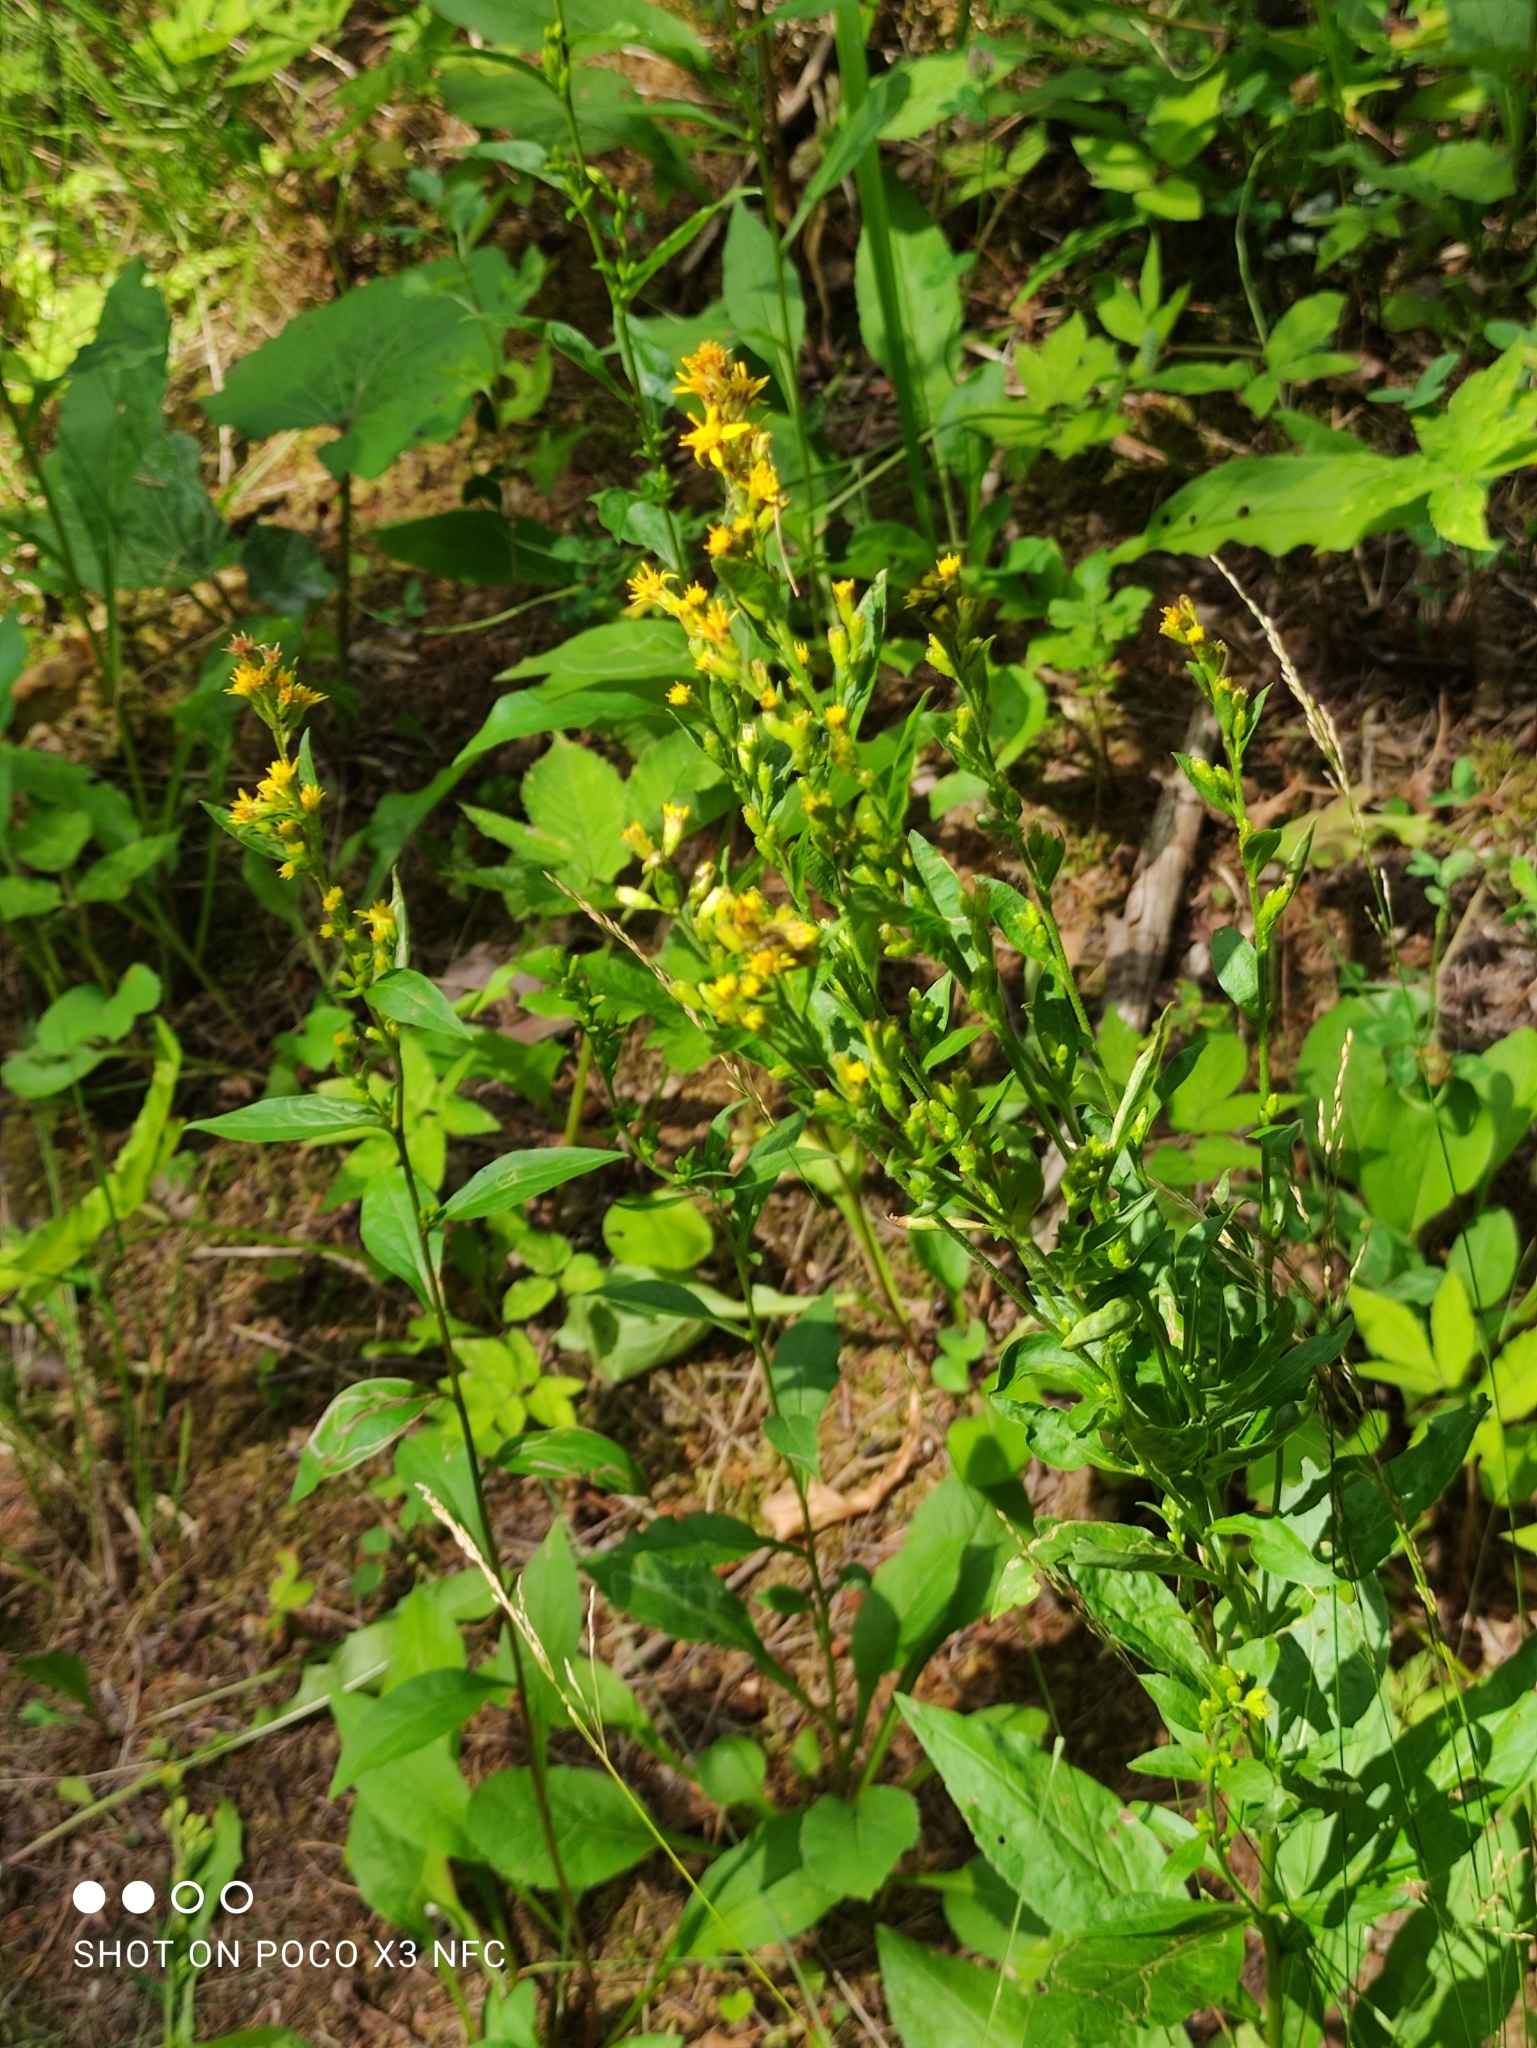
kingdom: Plantae
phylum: Tracheophyta
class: Magnoliopsida
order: Asterales
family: Asteraceae
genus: Solidago
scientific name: Solidago virgaurea
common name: Goldenrod
